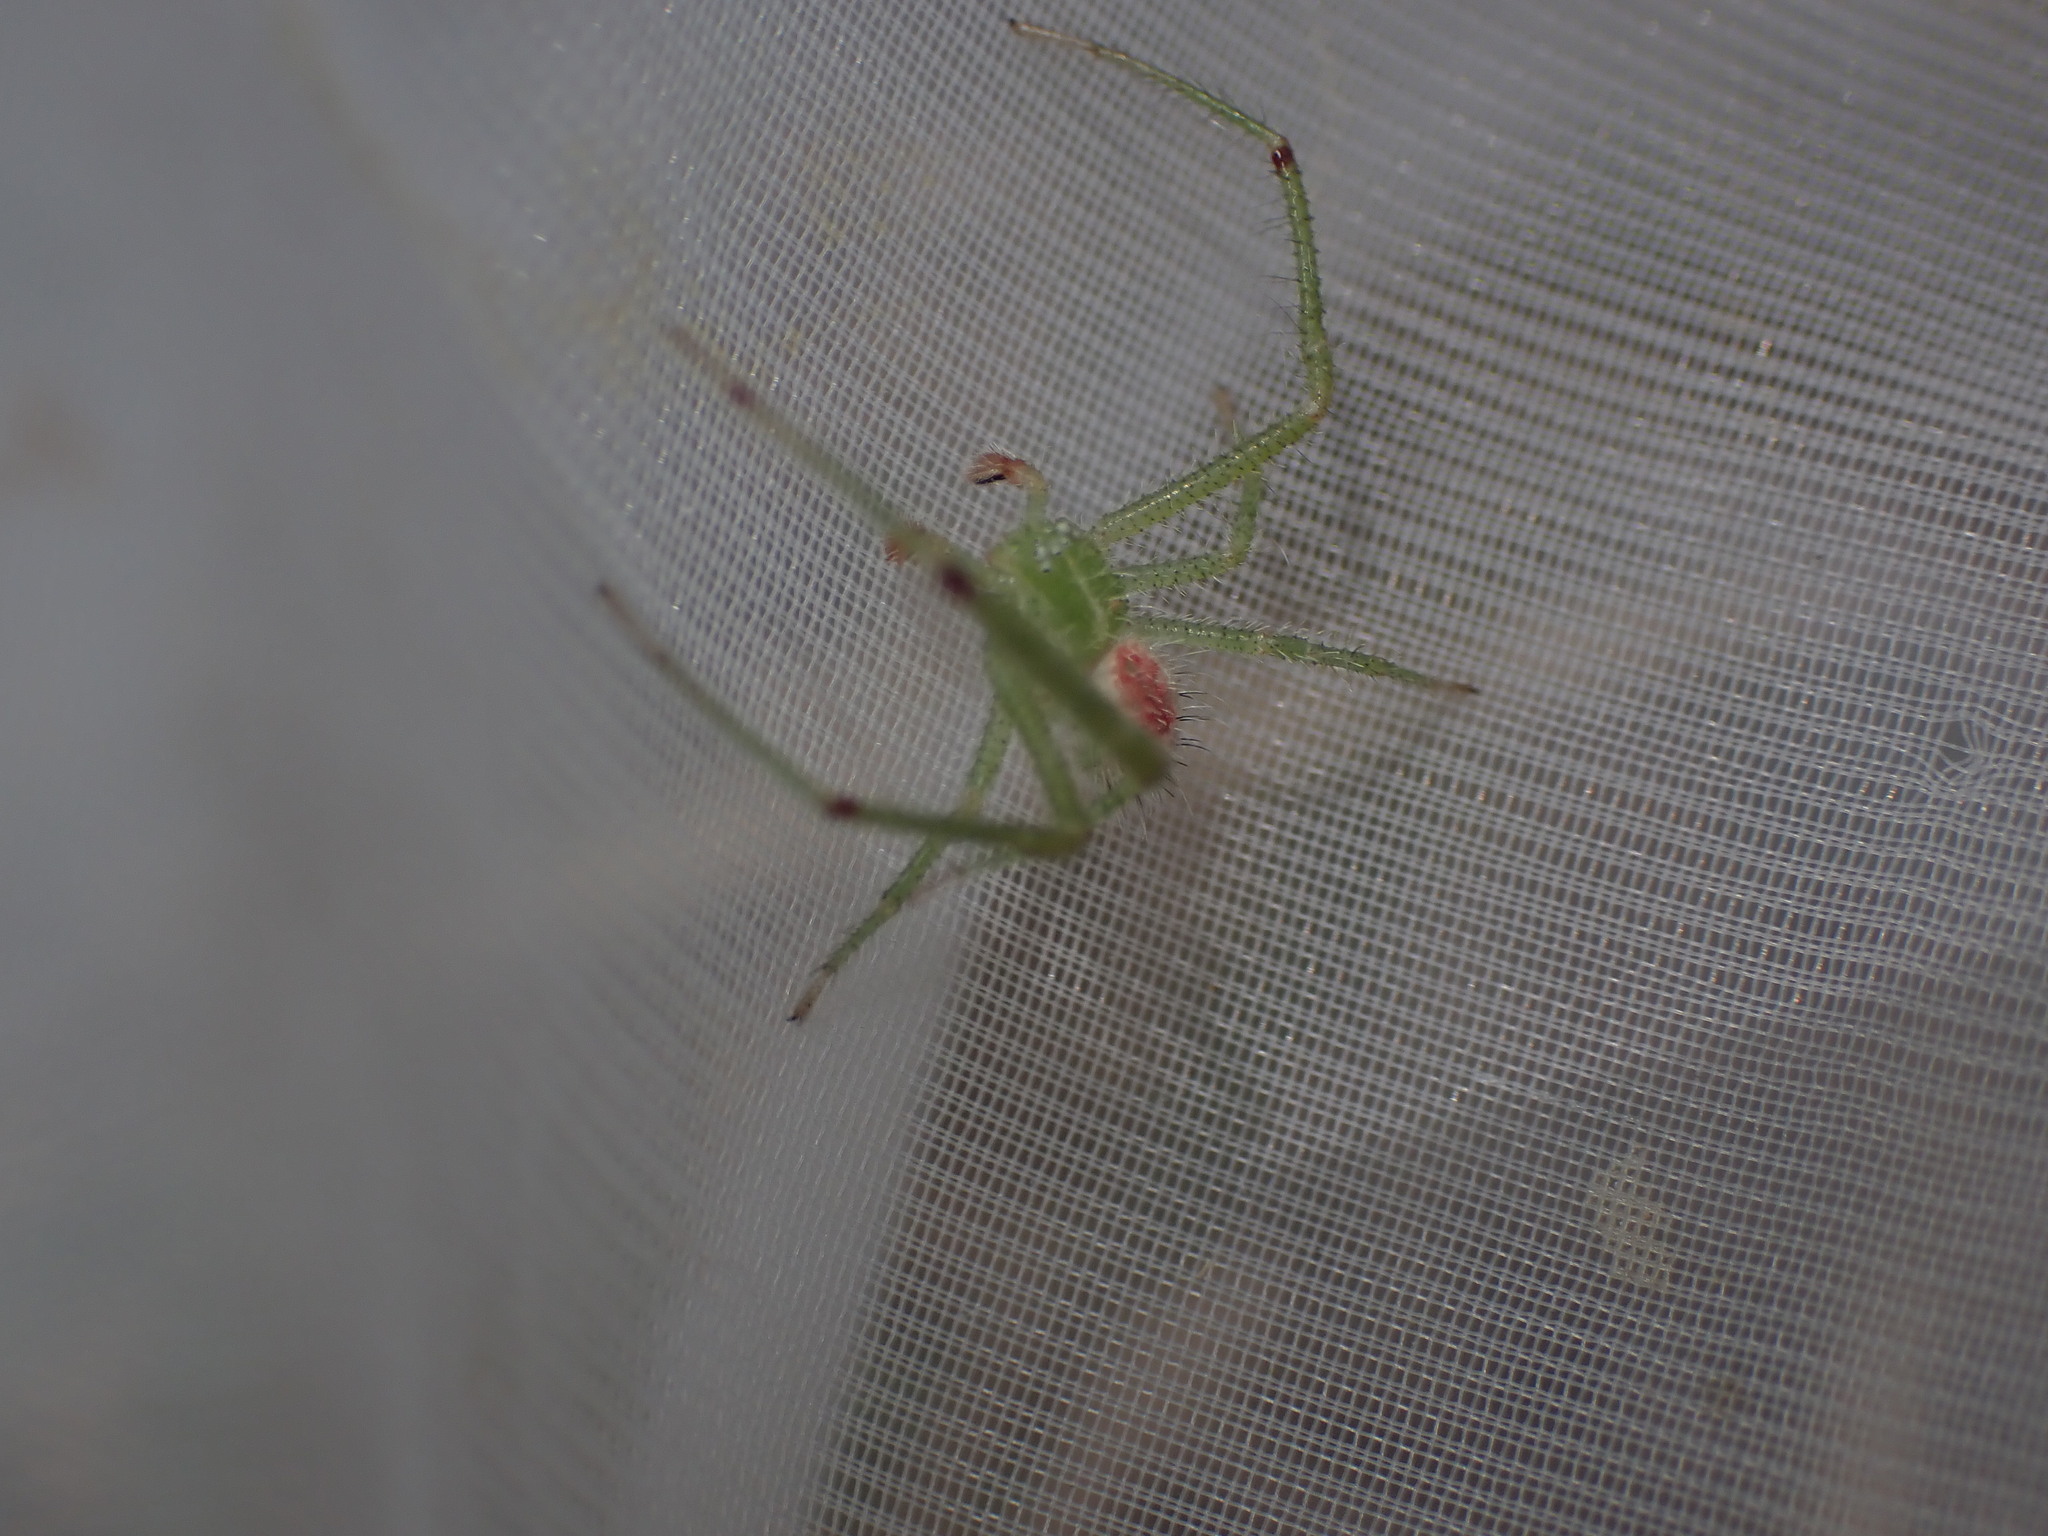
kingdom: Animalia
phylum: Arthropoda
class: Arachnida
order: Araneae
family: Thomisidae
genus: Heriaeus
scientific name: Heriaeus hirtus
